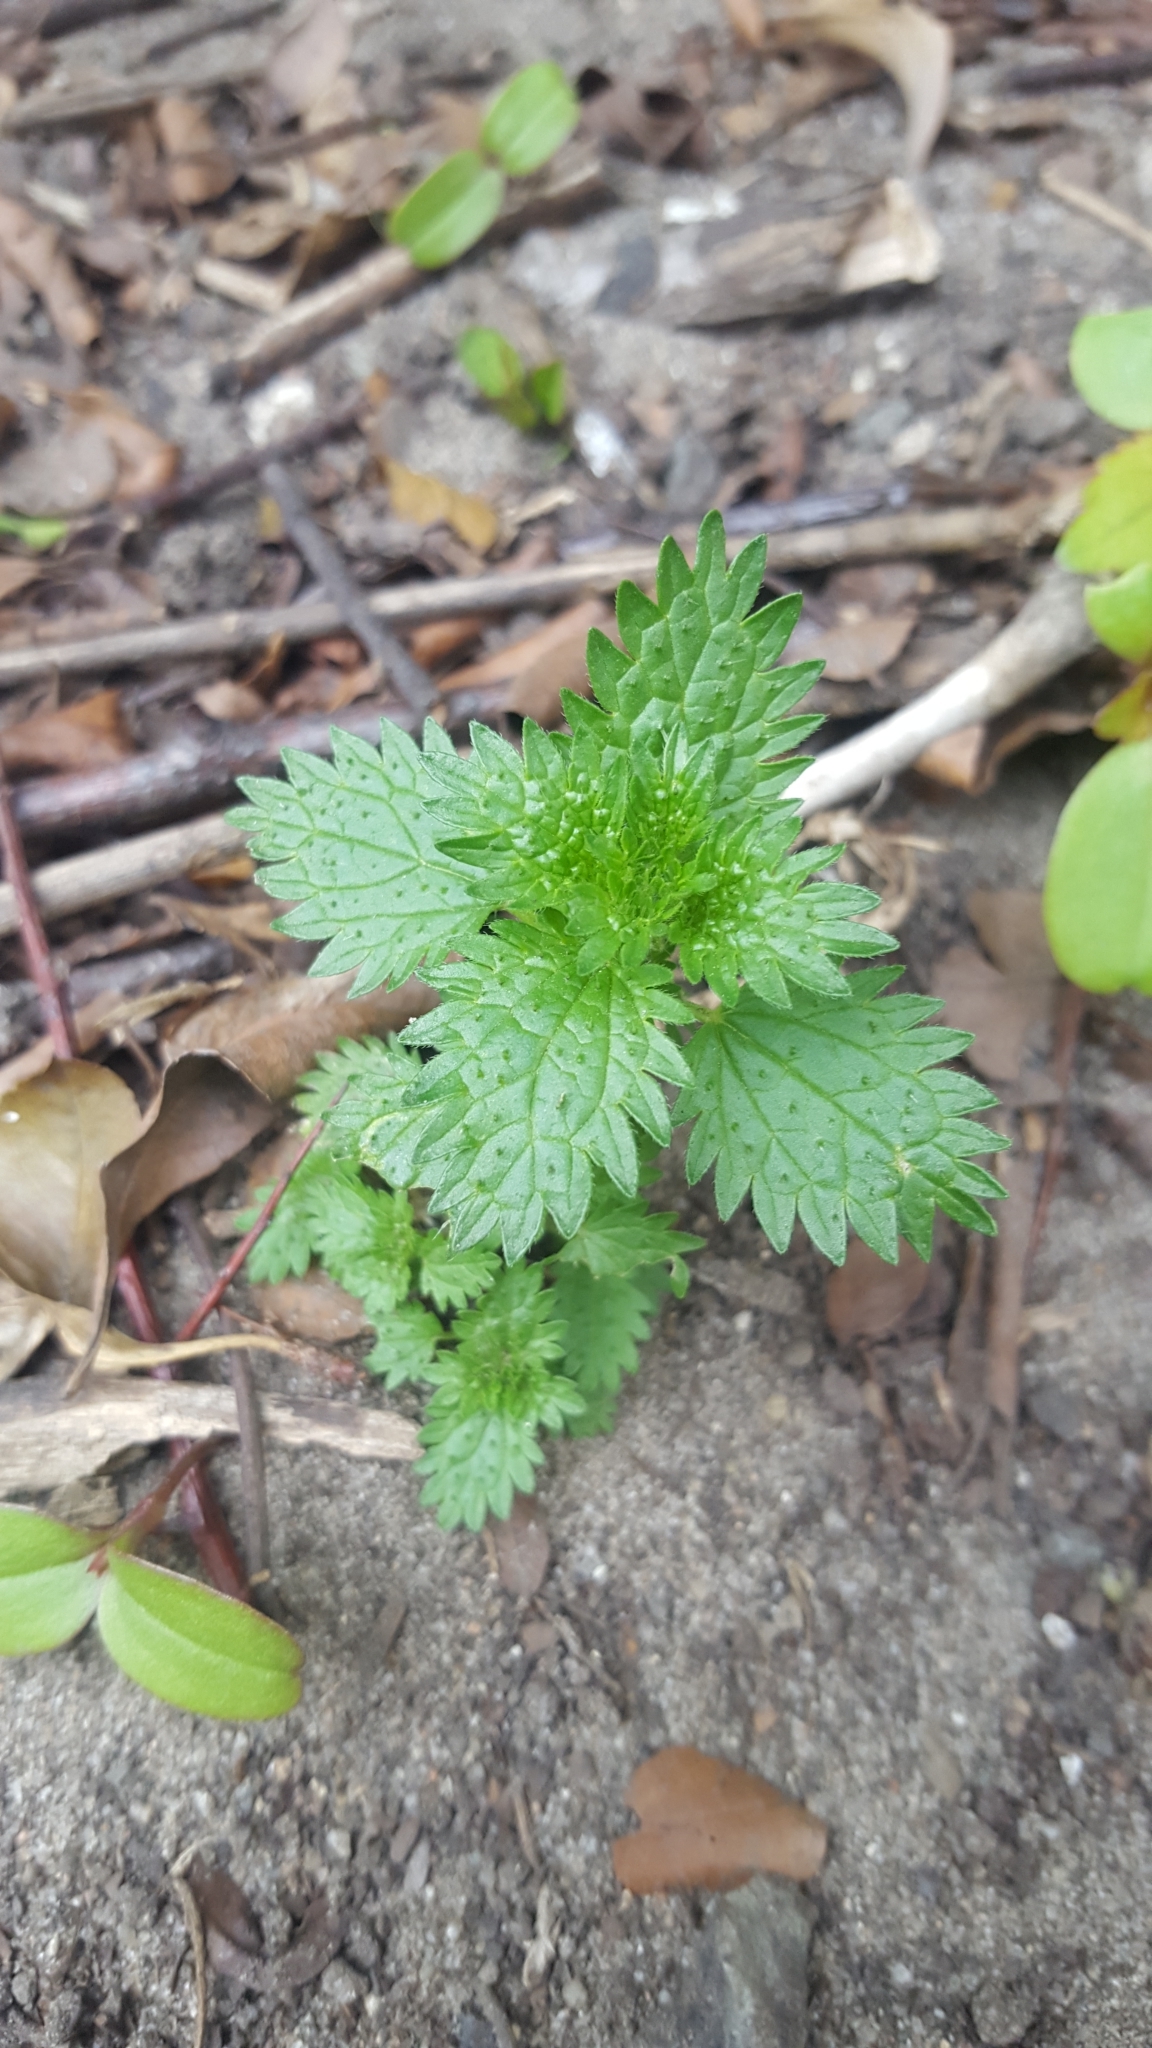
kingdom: Plantae
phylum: Tracheophyta
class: Magnoliopsida
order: Rosales
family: Urticaceae
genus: Urtica
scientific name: Urtica urens
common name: Dwarf nettle
